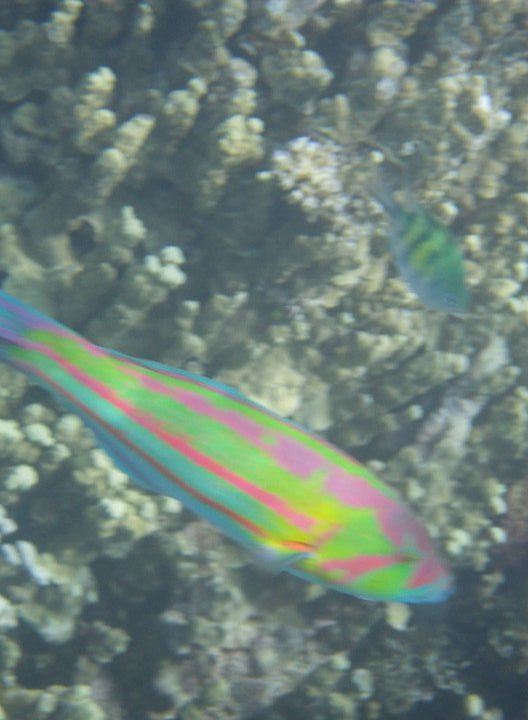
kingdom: Animalia
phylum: Chordata
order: Perciformes
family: Labridae
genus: Thalassoma
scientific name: Thalassoma purpureum
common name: Parrotfish
